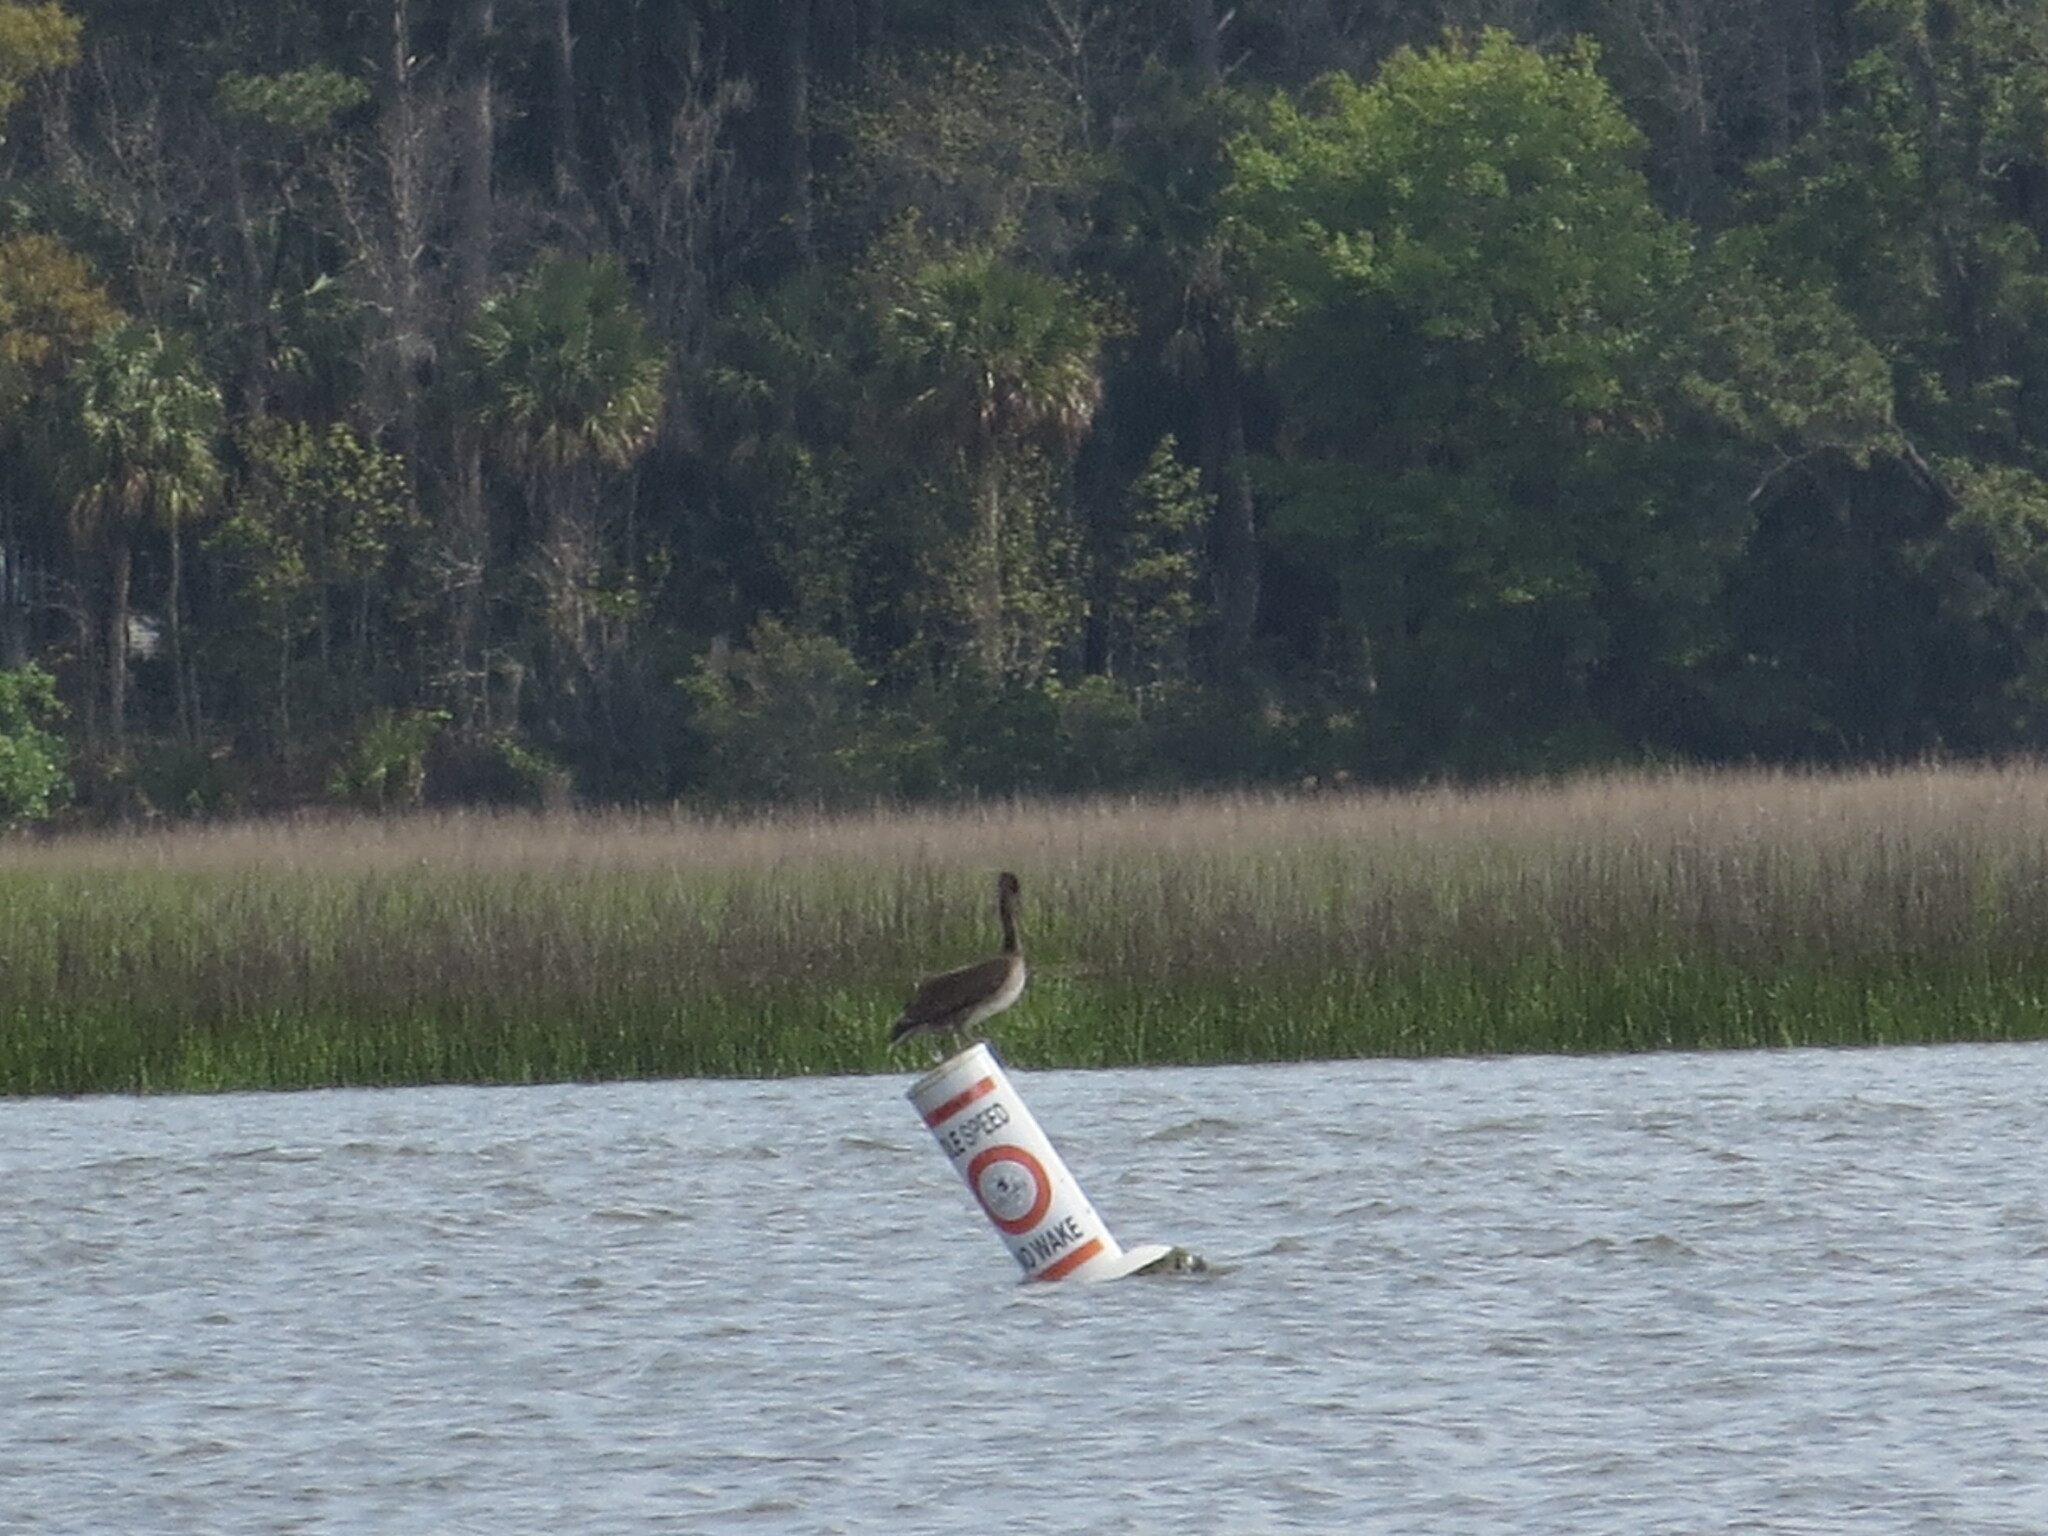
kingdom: Animalia
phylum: Chordata
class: Aves
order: Pelecaniformes
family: Pelecanidae
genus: Pelecanus
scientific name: Pelecanus occidentalis
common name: Brown pelican
